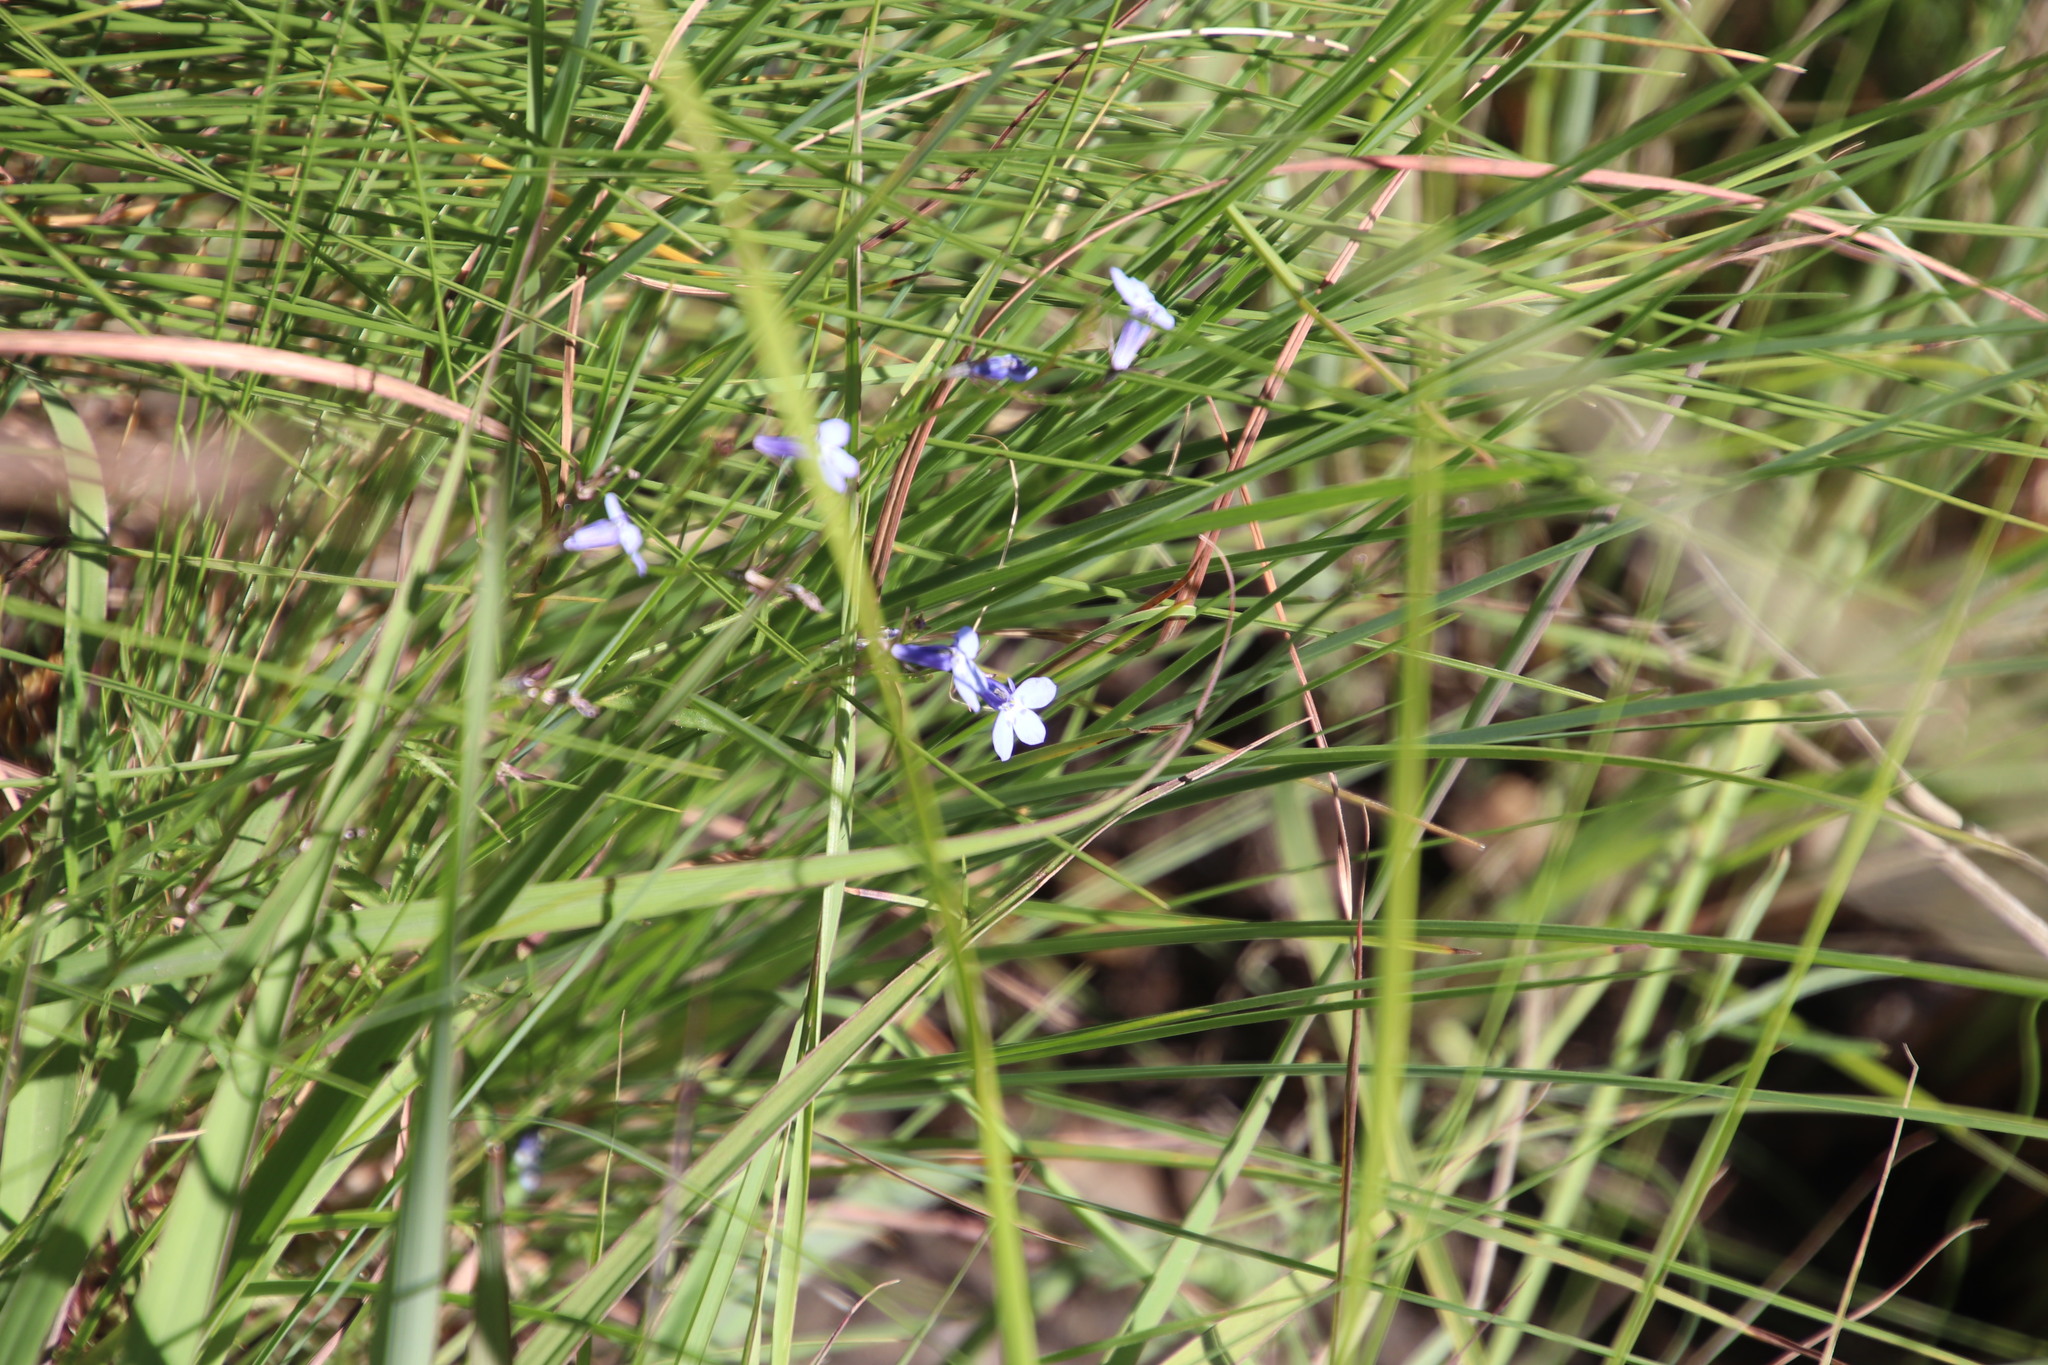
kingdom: Plantae
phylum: Tracheophyta
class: Magnoliopsida
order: Asterales
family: Campanulaceae
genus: Lobelia
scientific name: Lobelia flaccida
